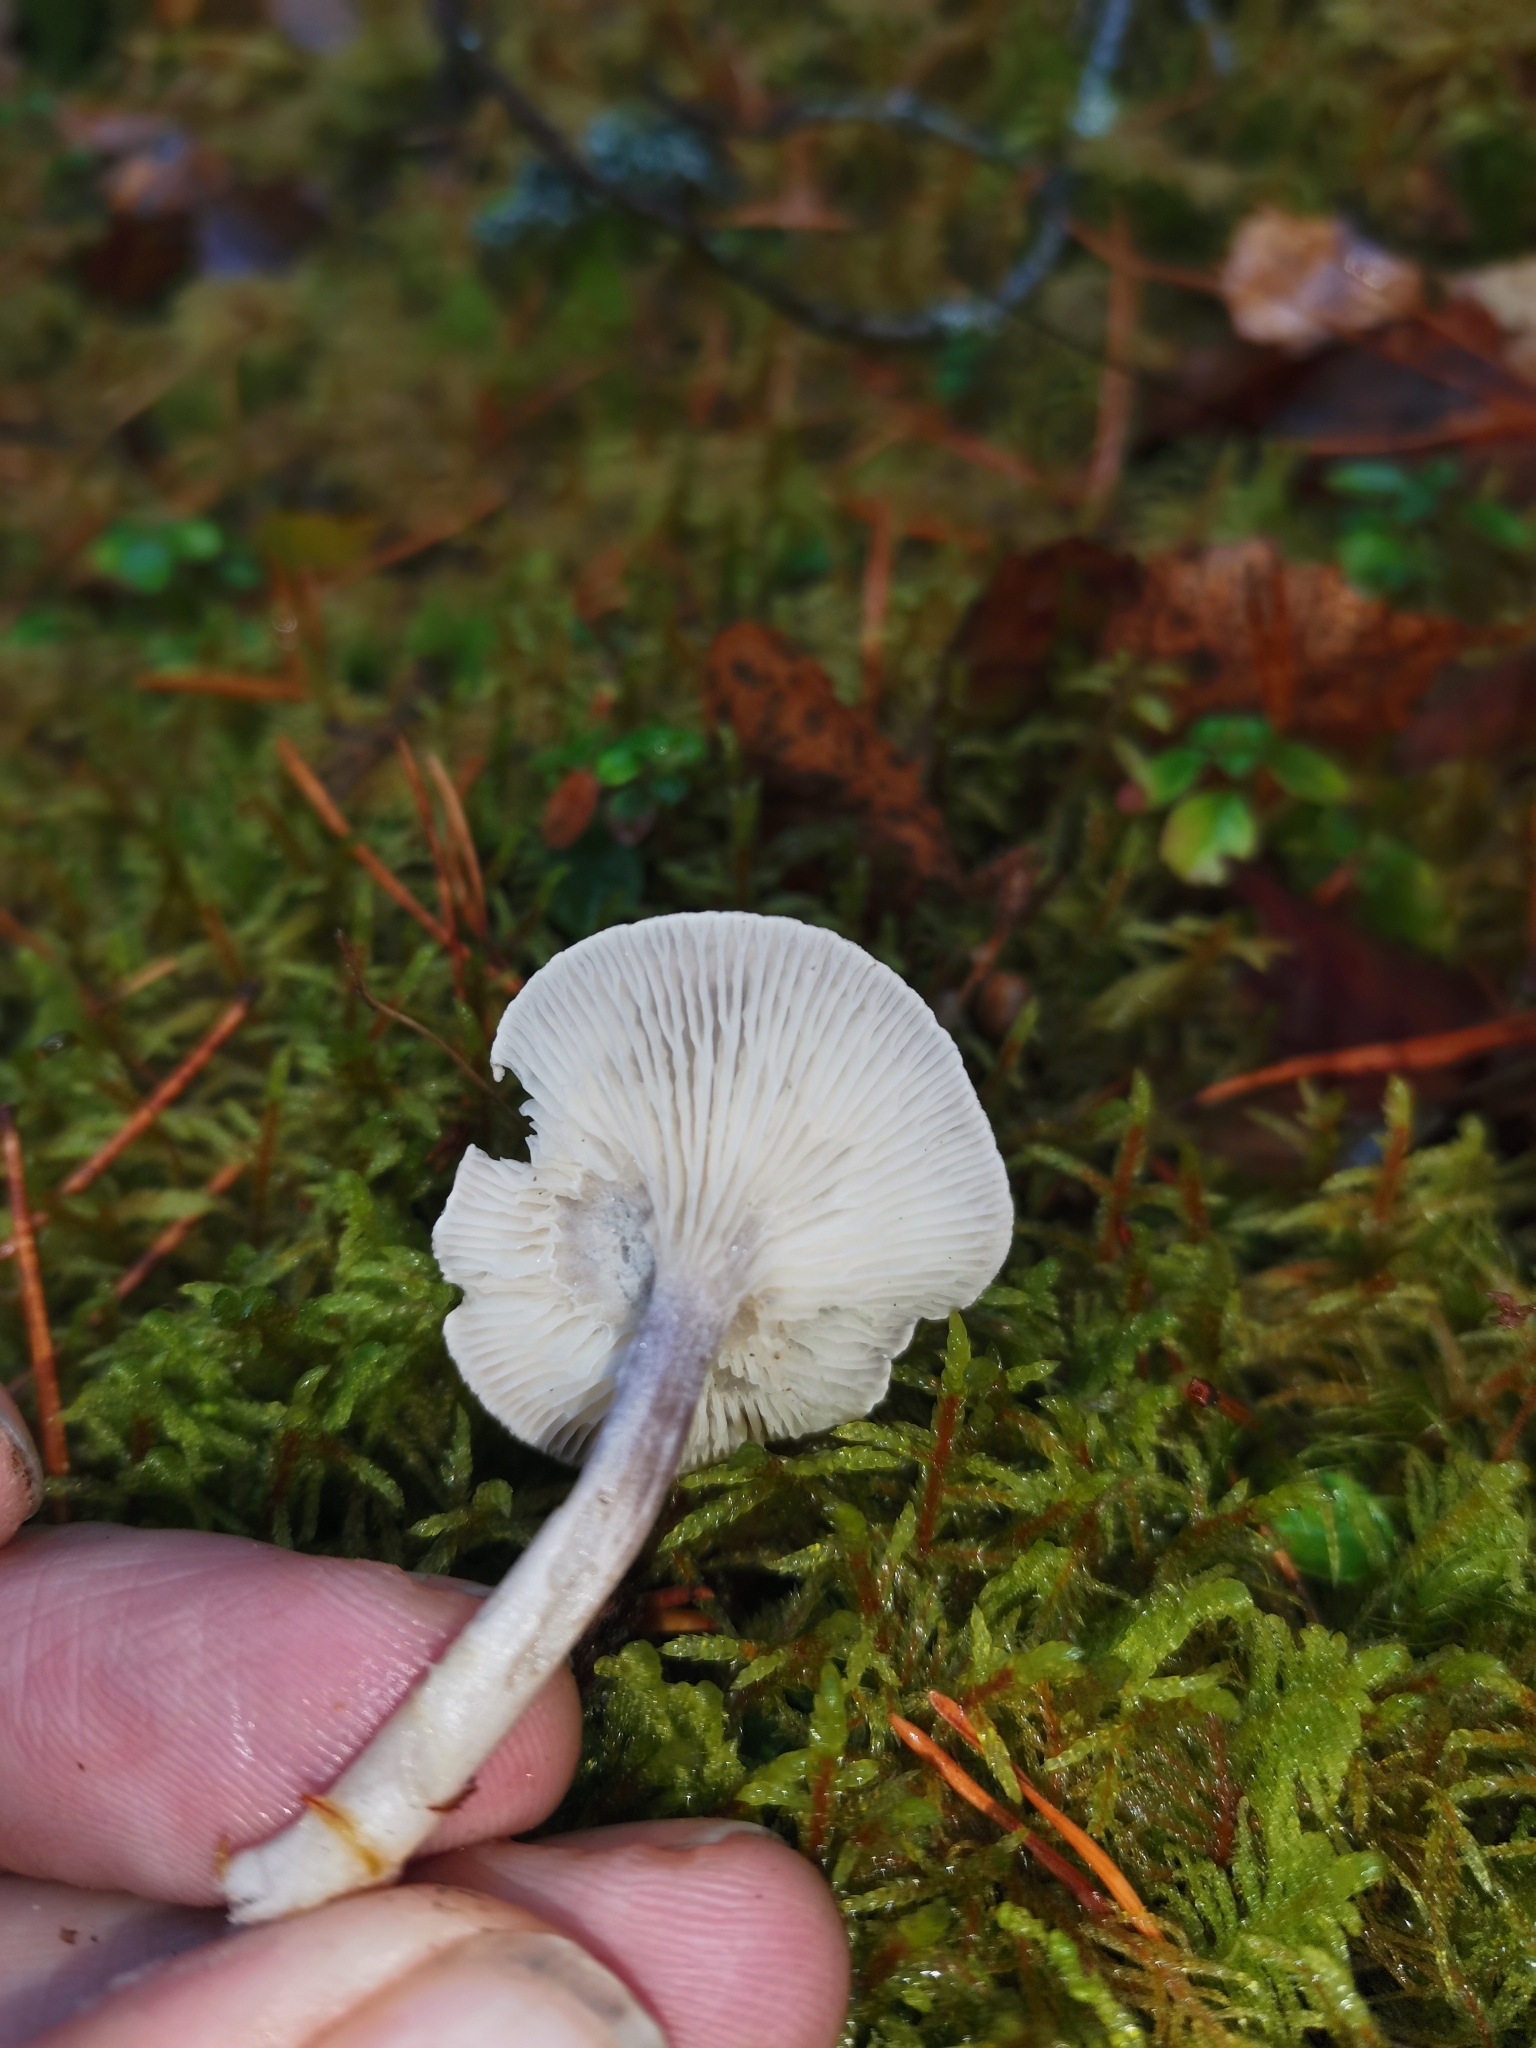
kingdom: Fungi
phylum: Basidiomycota
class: Agaricomycetes
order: Agaricales
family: Hygrophoraceae
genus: Cantharellula
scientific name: Cantharellula umbonata
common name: The humpback
